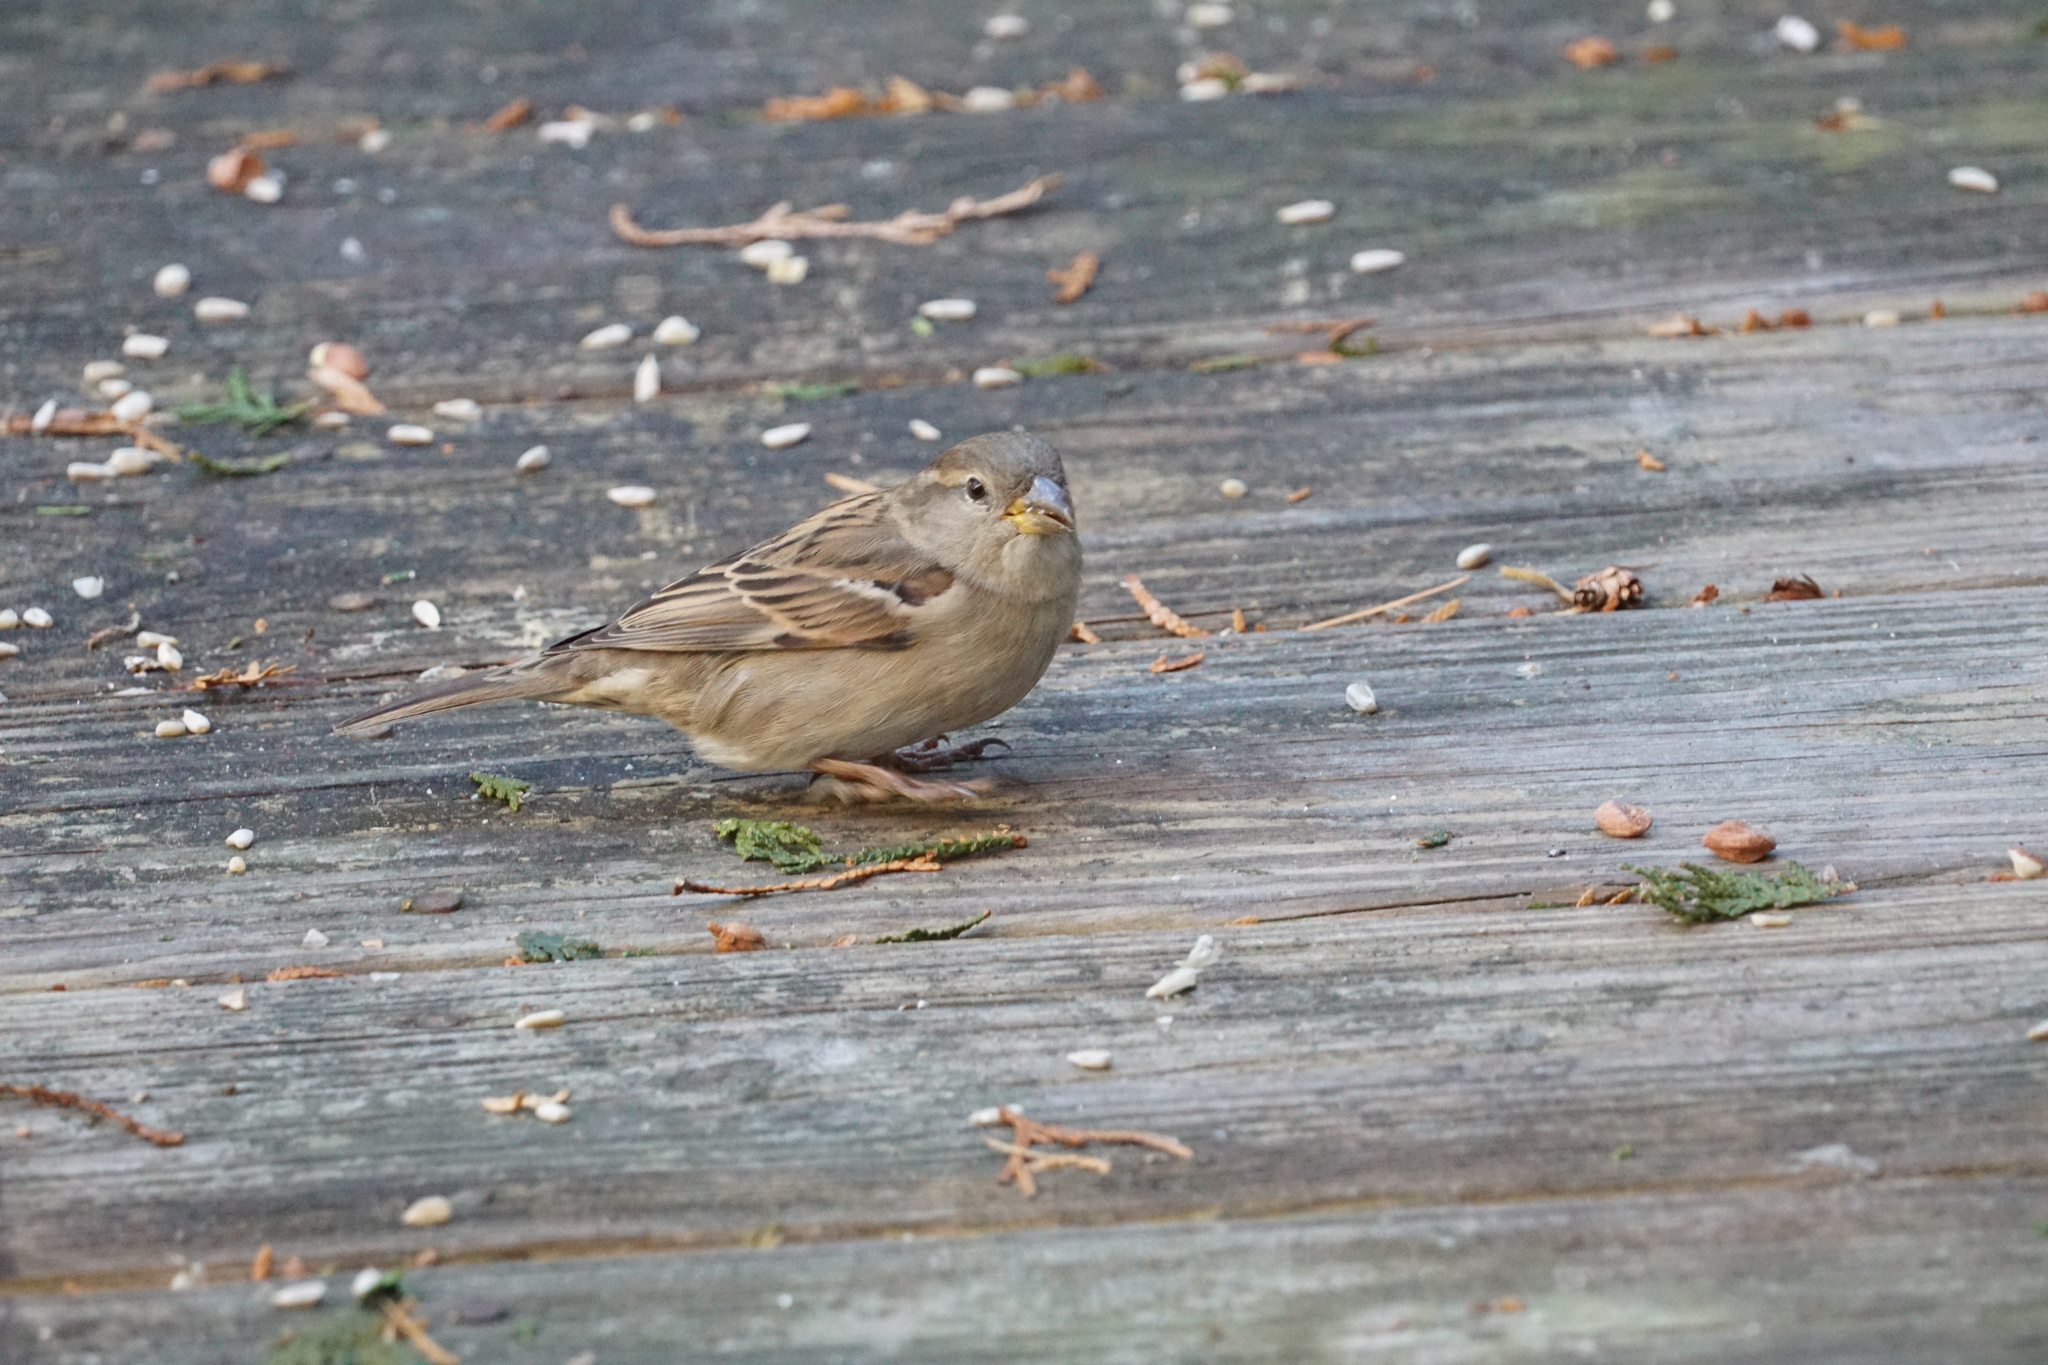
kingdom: Animalia
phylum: Chordata
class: Aves
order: Passeriformes
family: Passeridae
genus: Passer
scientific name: Passer domesticus
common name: House sparrow
